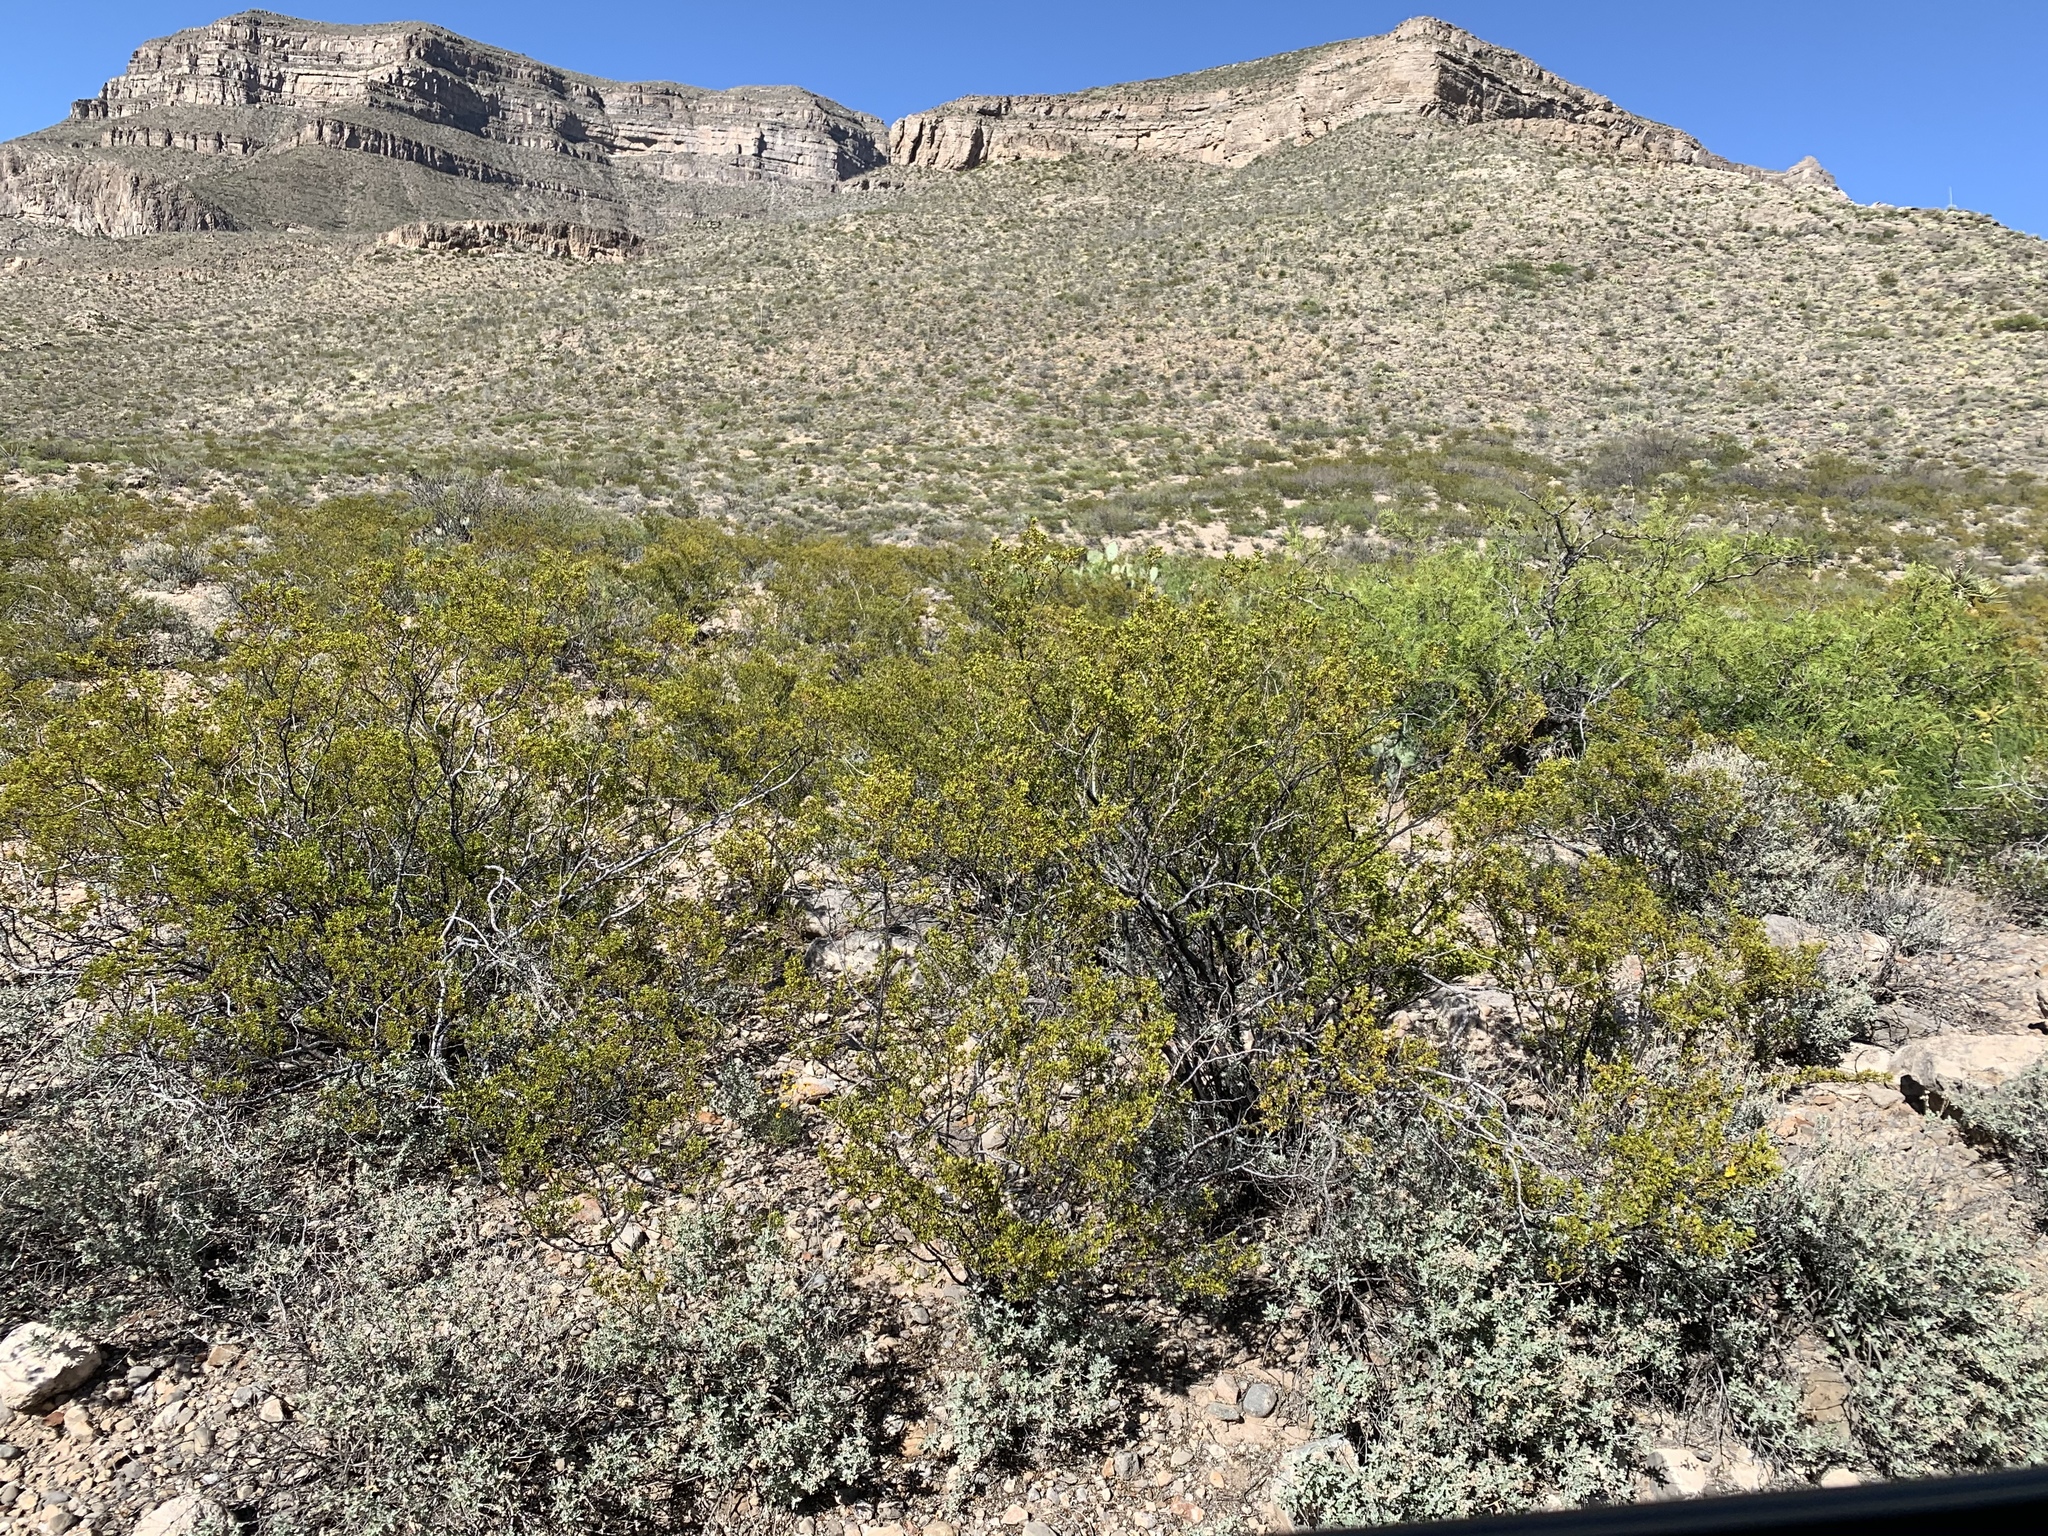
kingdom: Plantae
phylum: Tracheophyta
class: Magnoliopsida
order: Zygophyllales
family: Zygophyllaceae
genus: Larrea
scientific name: Larrea tridentata
